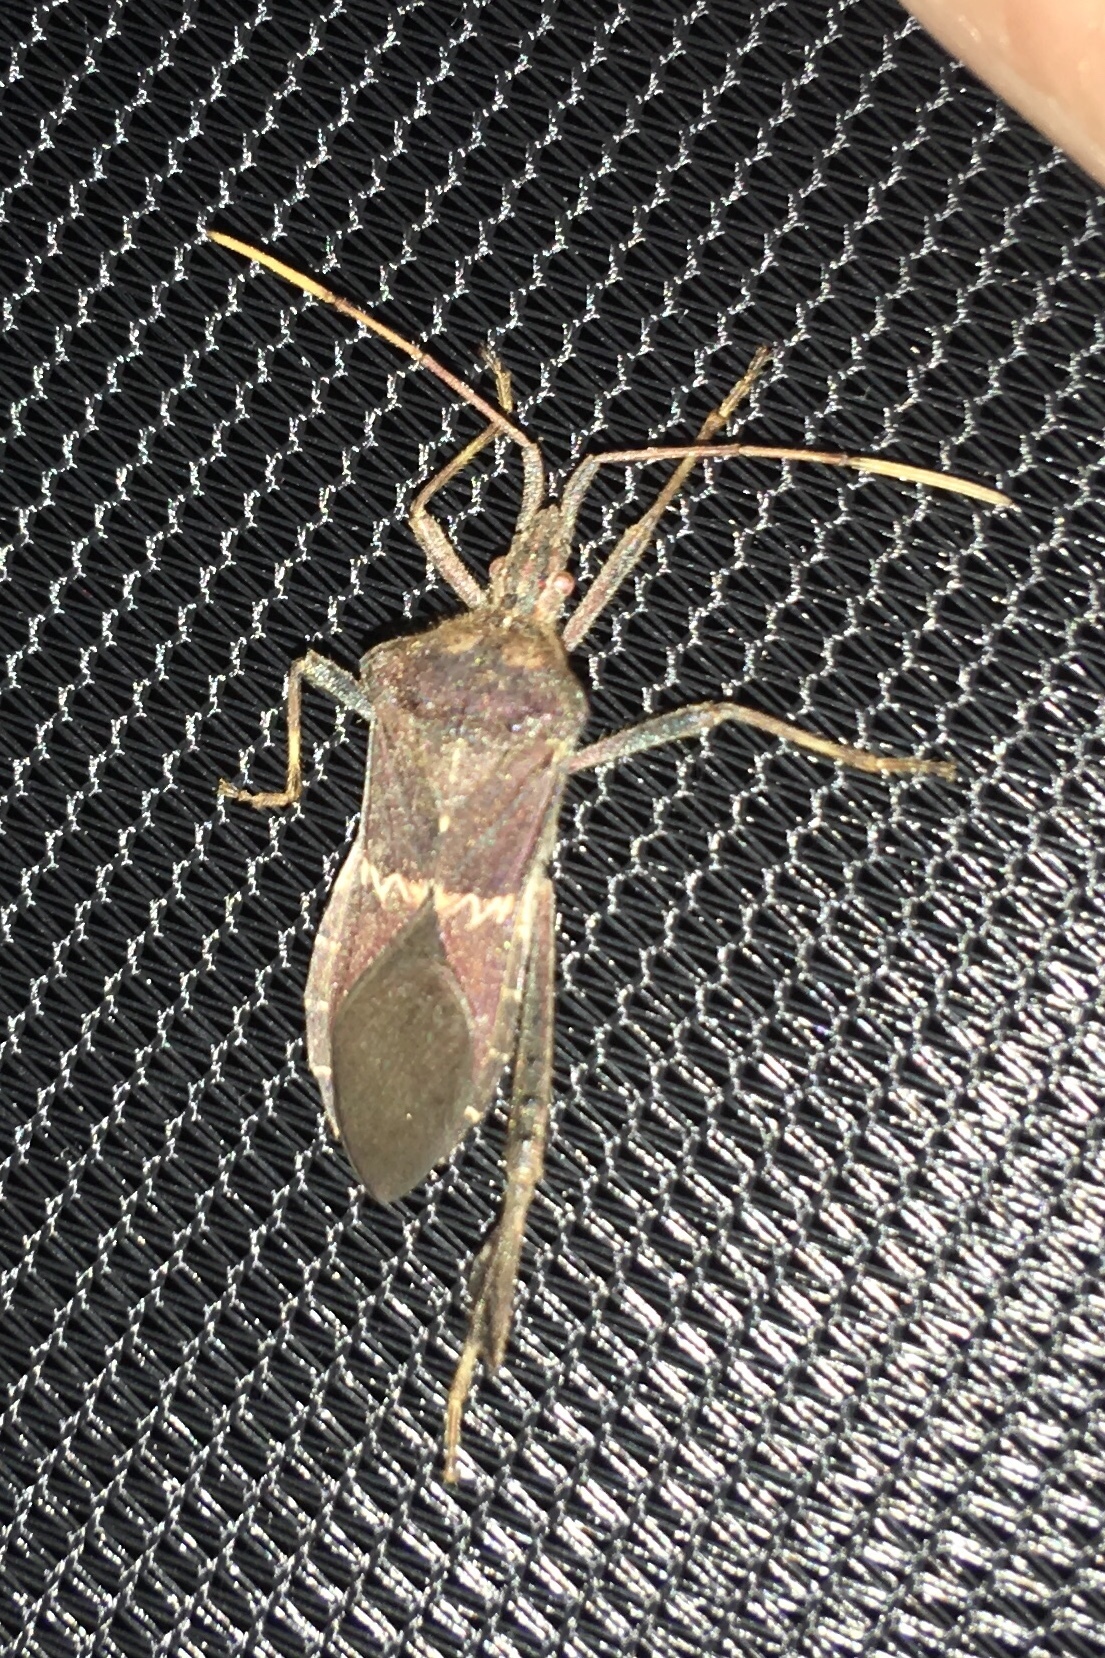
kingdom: Animalia
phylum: Arthropoda
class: Insecta
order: Hemiptera
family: Coreidae
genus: Leptoglossus
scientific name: Leptoglossus zonatus
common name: Large-legged bug
